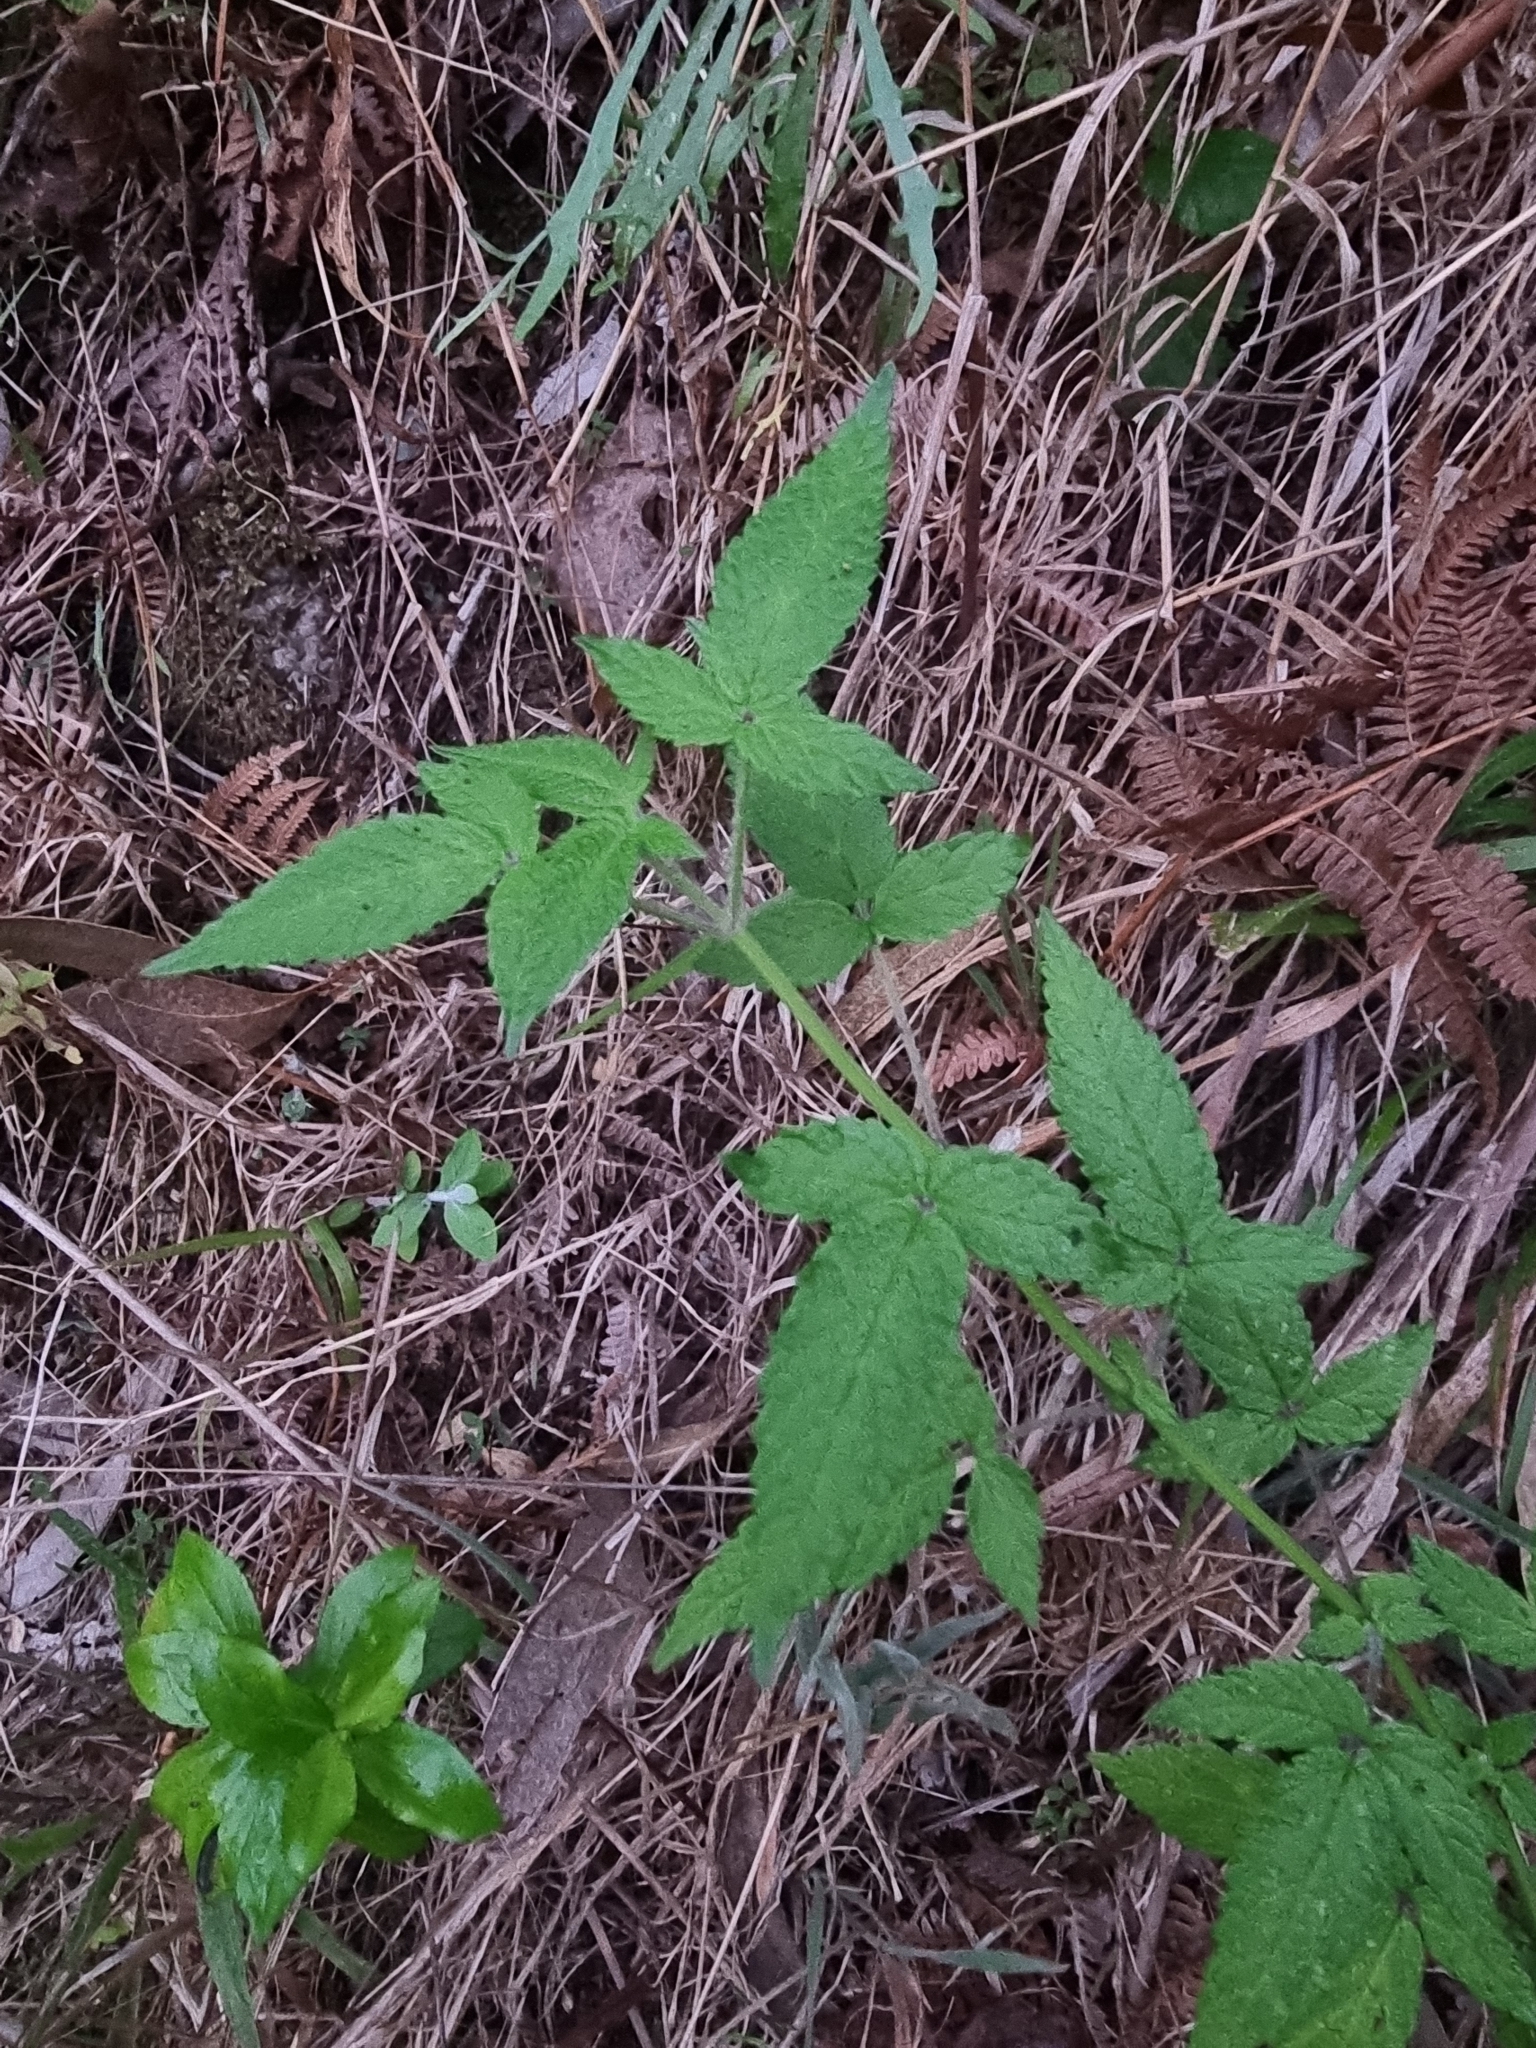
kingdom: Plantae
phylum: Tracheophyta
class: Magnoliopsida
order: Lamiales
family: Lamiaceae
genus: Cedronella
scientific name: Cedronella canariensis
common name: Canary islands balm
